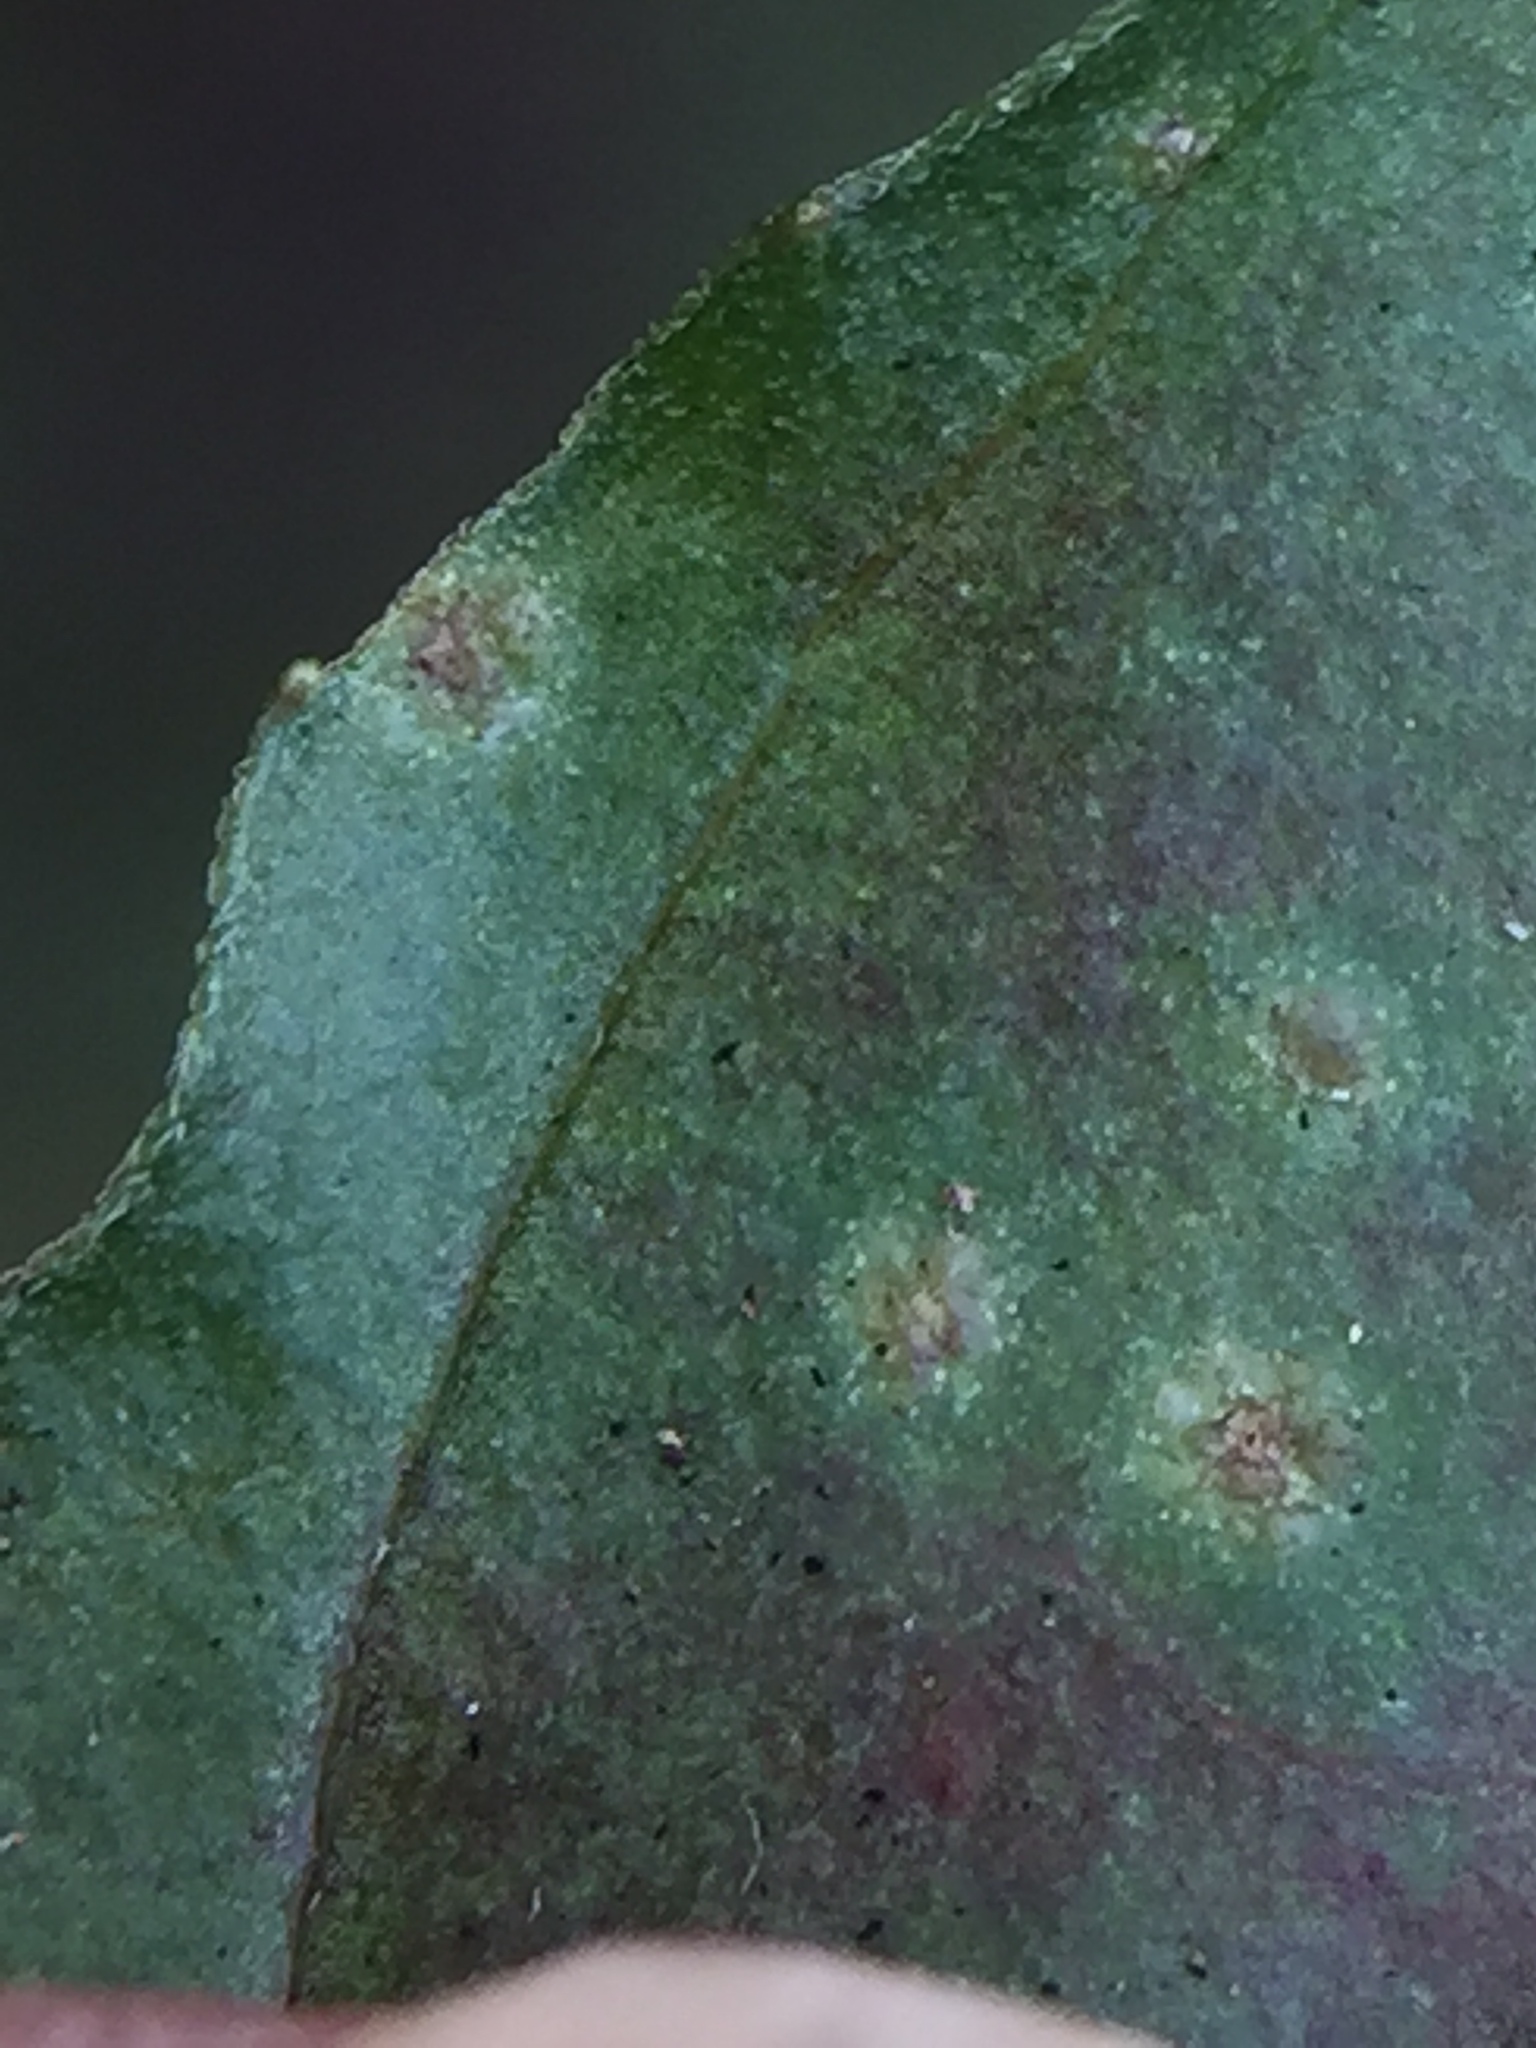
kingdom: Fungi
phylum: Chytridiomycota
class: Chytridiomycetes
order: Chytridiales
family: Synchytriaceae
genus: Synchytrium
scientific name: Synchytrium epilobii
